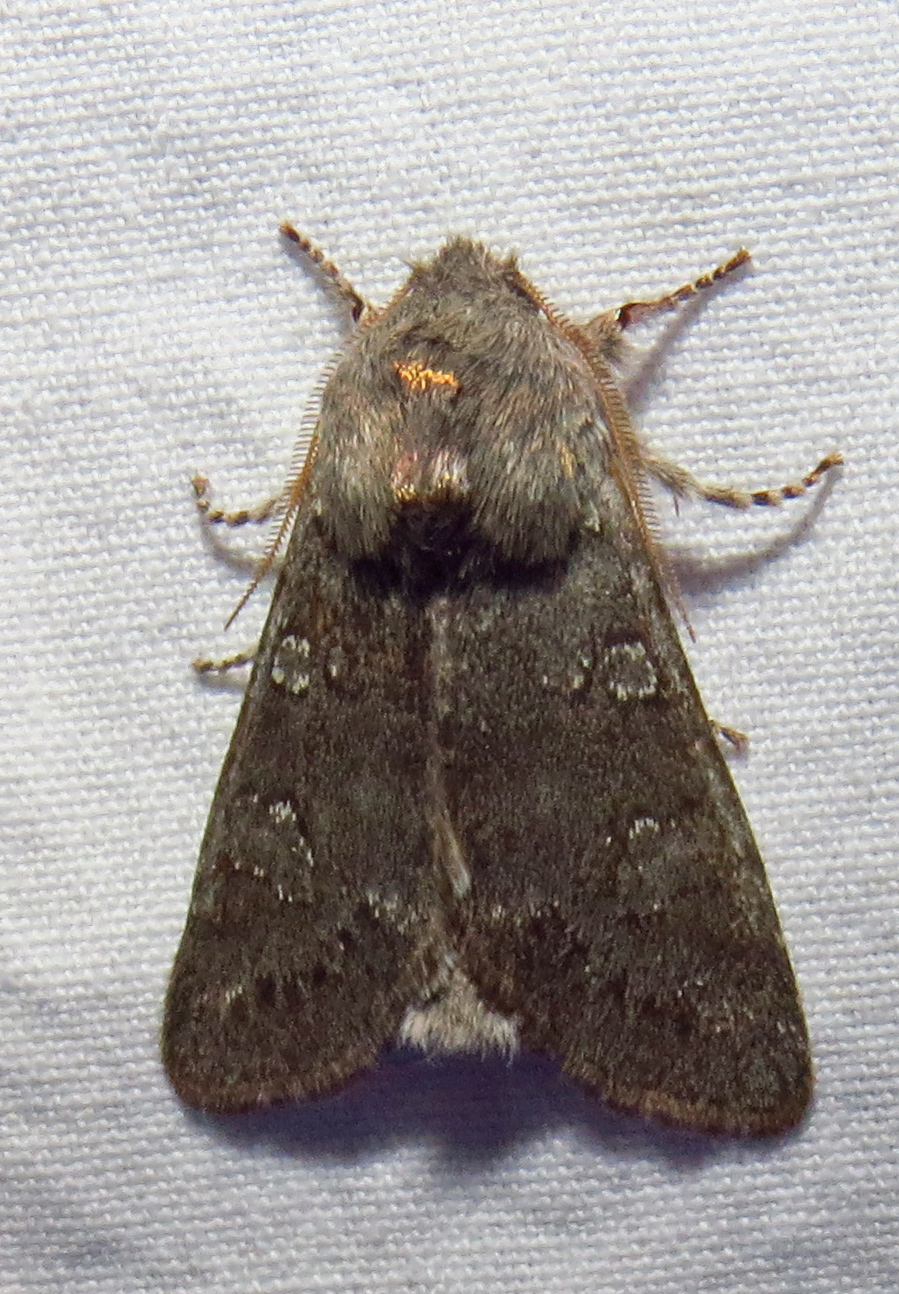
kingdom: Animalia
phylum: Arthropoda
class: Insecta
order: Lepidoptera
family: Noctuidae
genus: Psaphida
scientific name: Psaphida rolandi
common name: Roland's sallow
